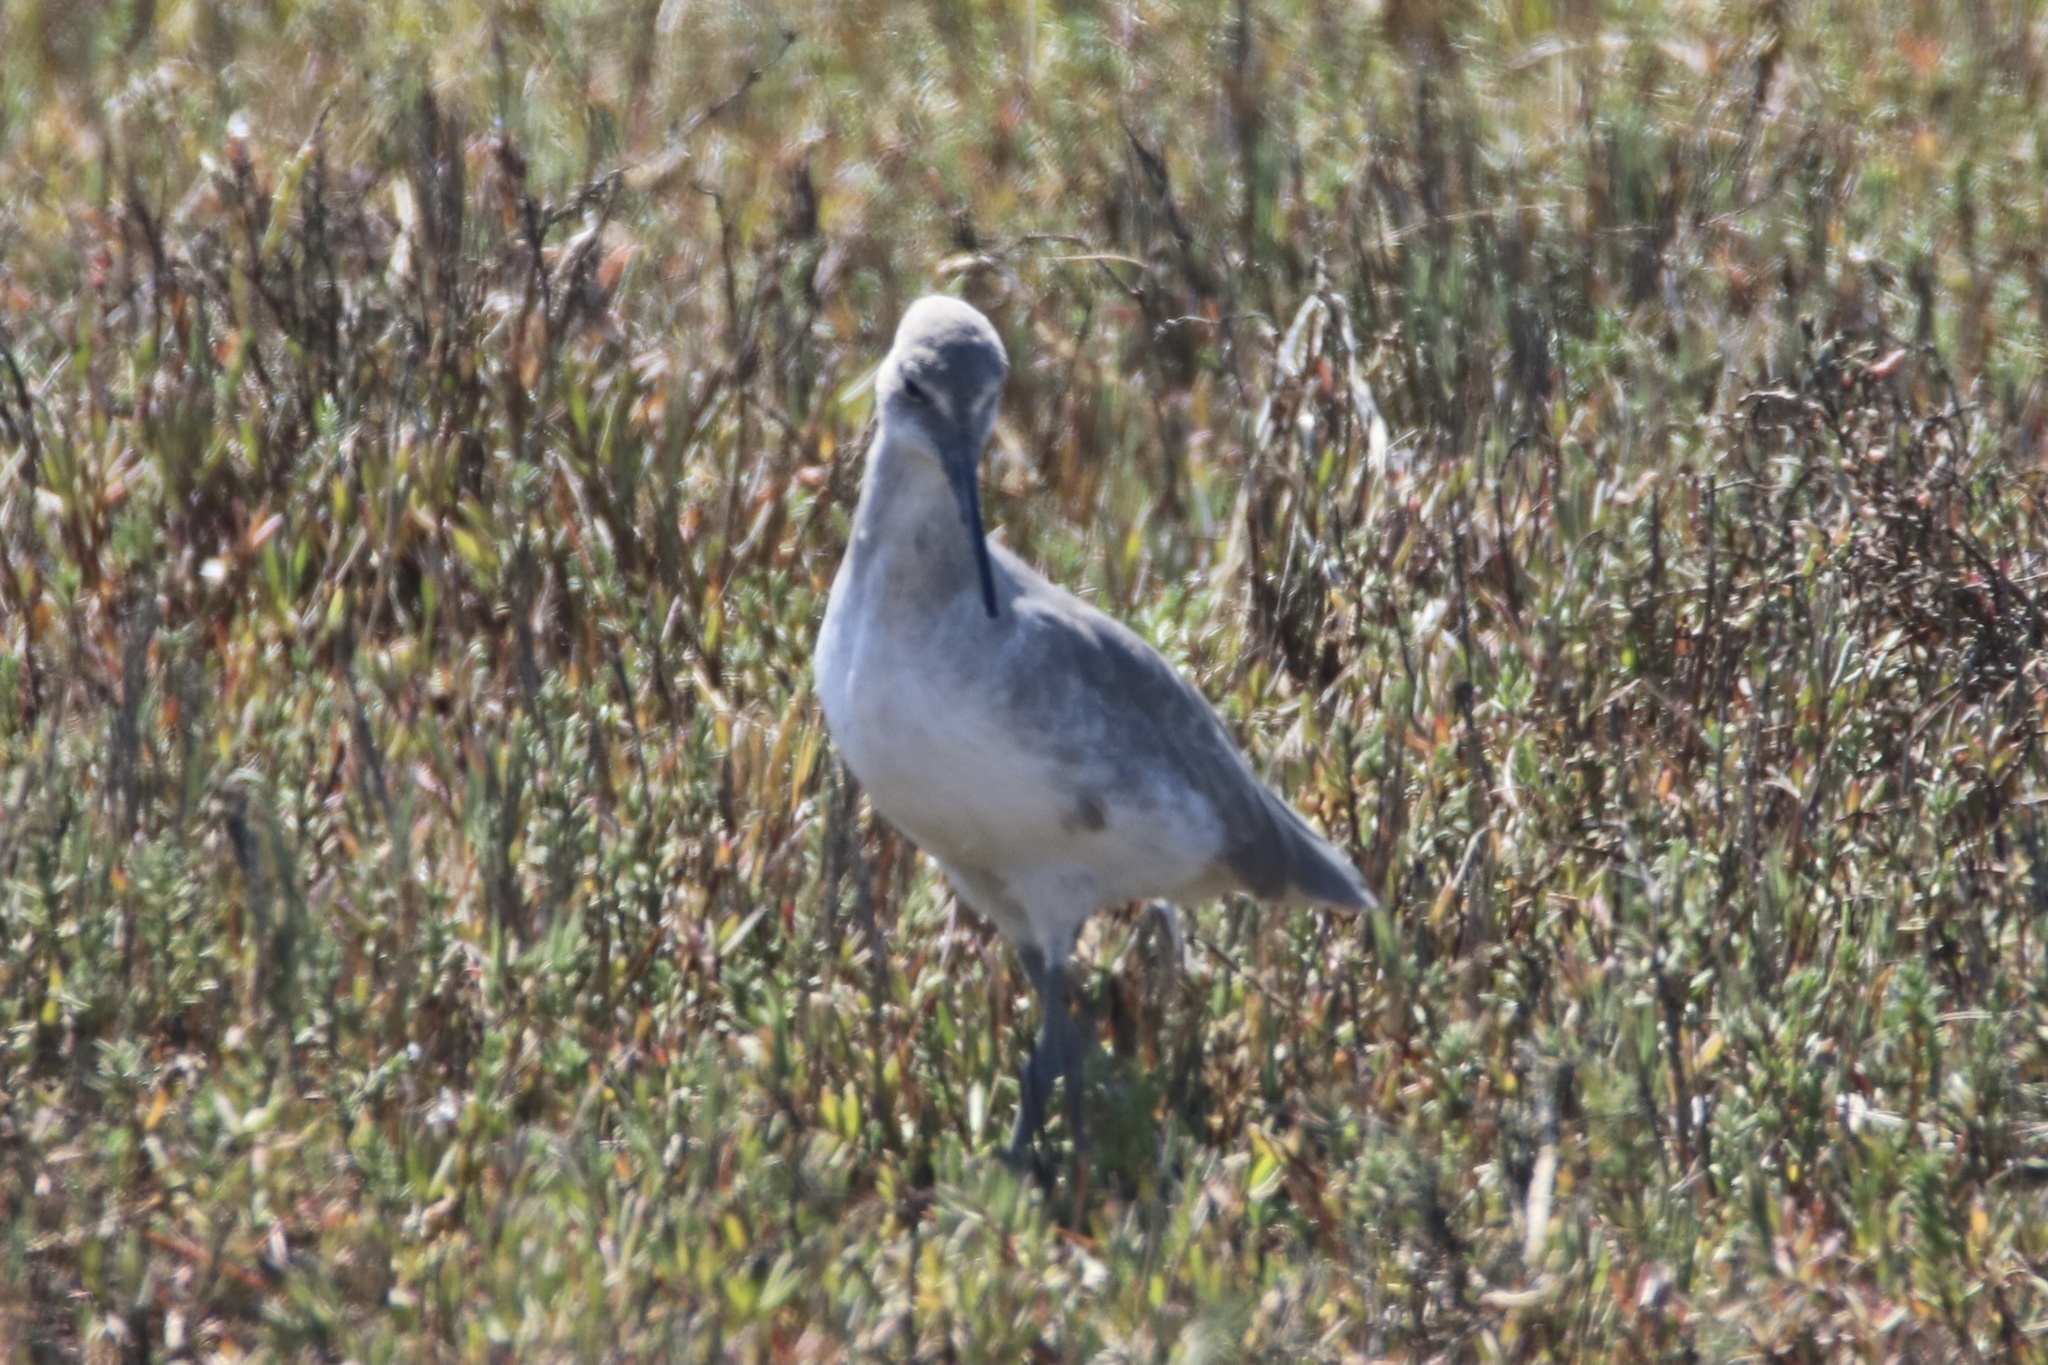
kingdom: Animalia
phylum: Chordata
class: Aves
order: Charadriiformes
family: Scolopacidae
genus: Tringa
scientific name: Tringa semipalmata
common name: Willet
